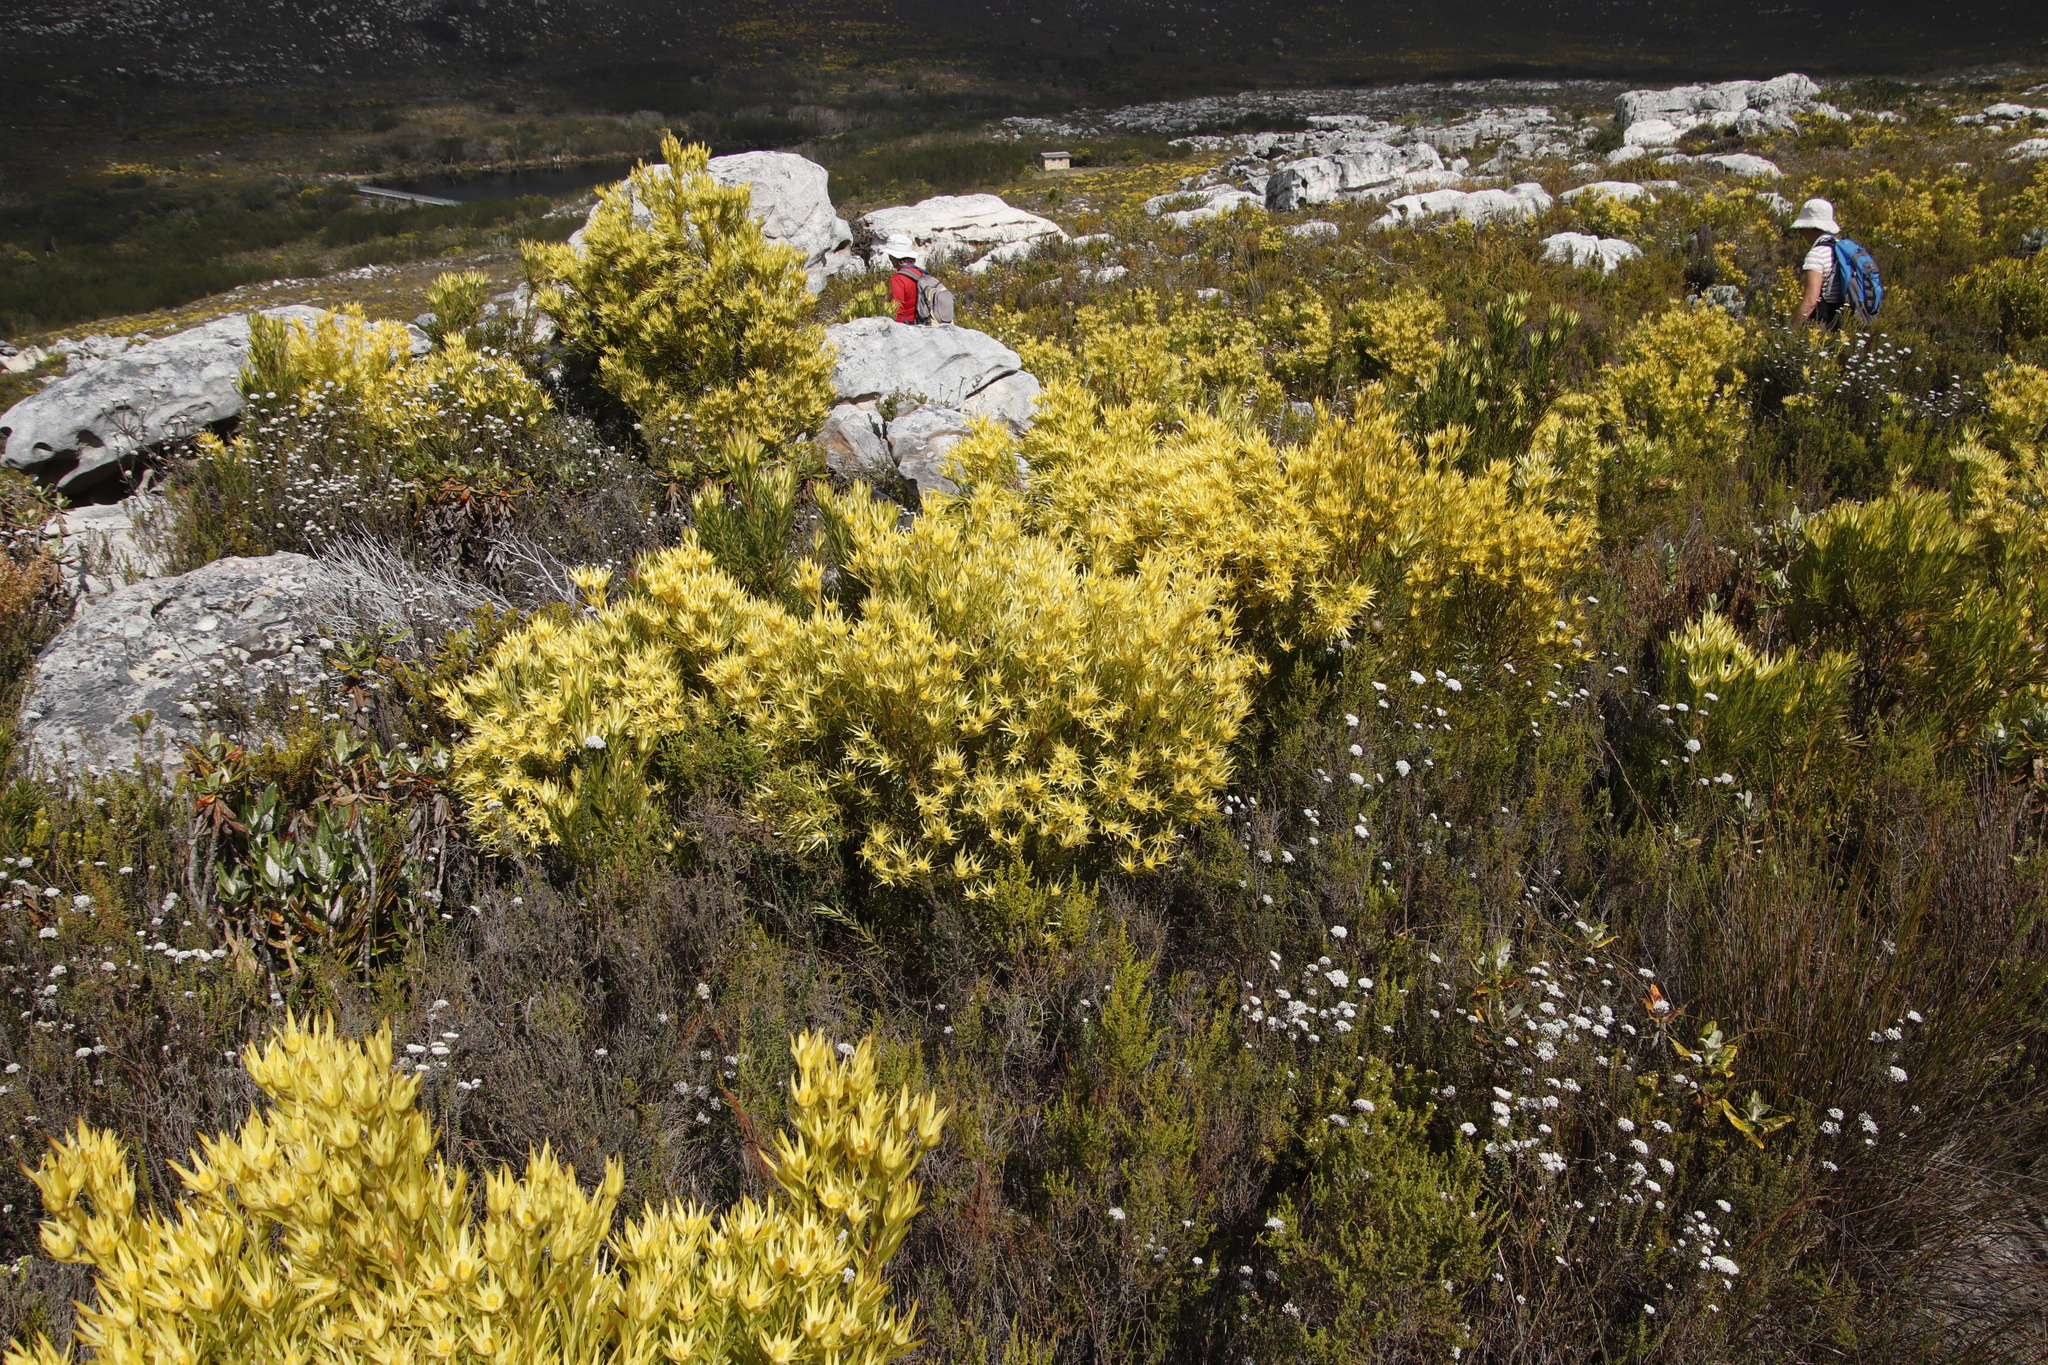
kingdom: Plantae
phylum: Tracheophyta
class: Magnoliopsida
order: Proteales
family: Proteaceae
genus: Leucadendron
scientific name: Leucadendron xanthoconus
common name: Sickle-leaf conebush
